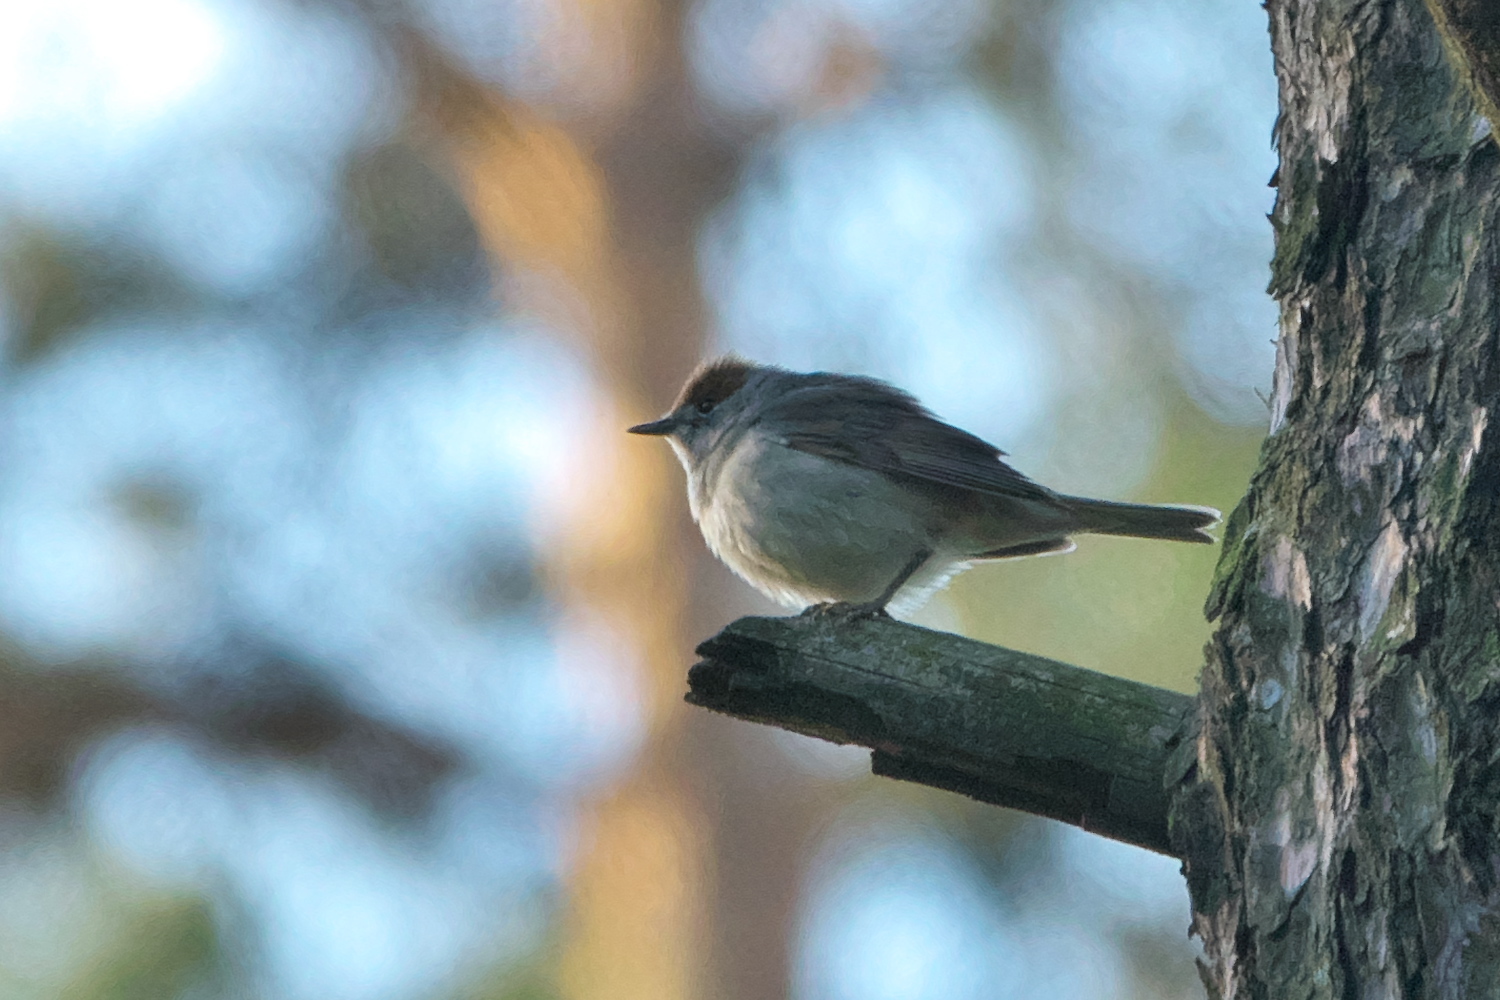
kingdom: Animalia
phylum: Chordata
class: Aves
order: Passeriformes
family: Sylviidae
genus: Sylvia
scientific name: Sylvia atricapilla
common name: Eurasian blackcap
